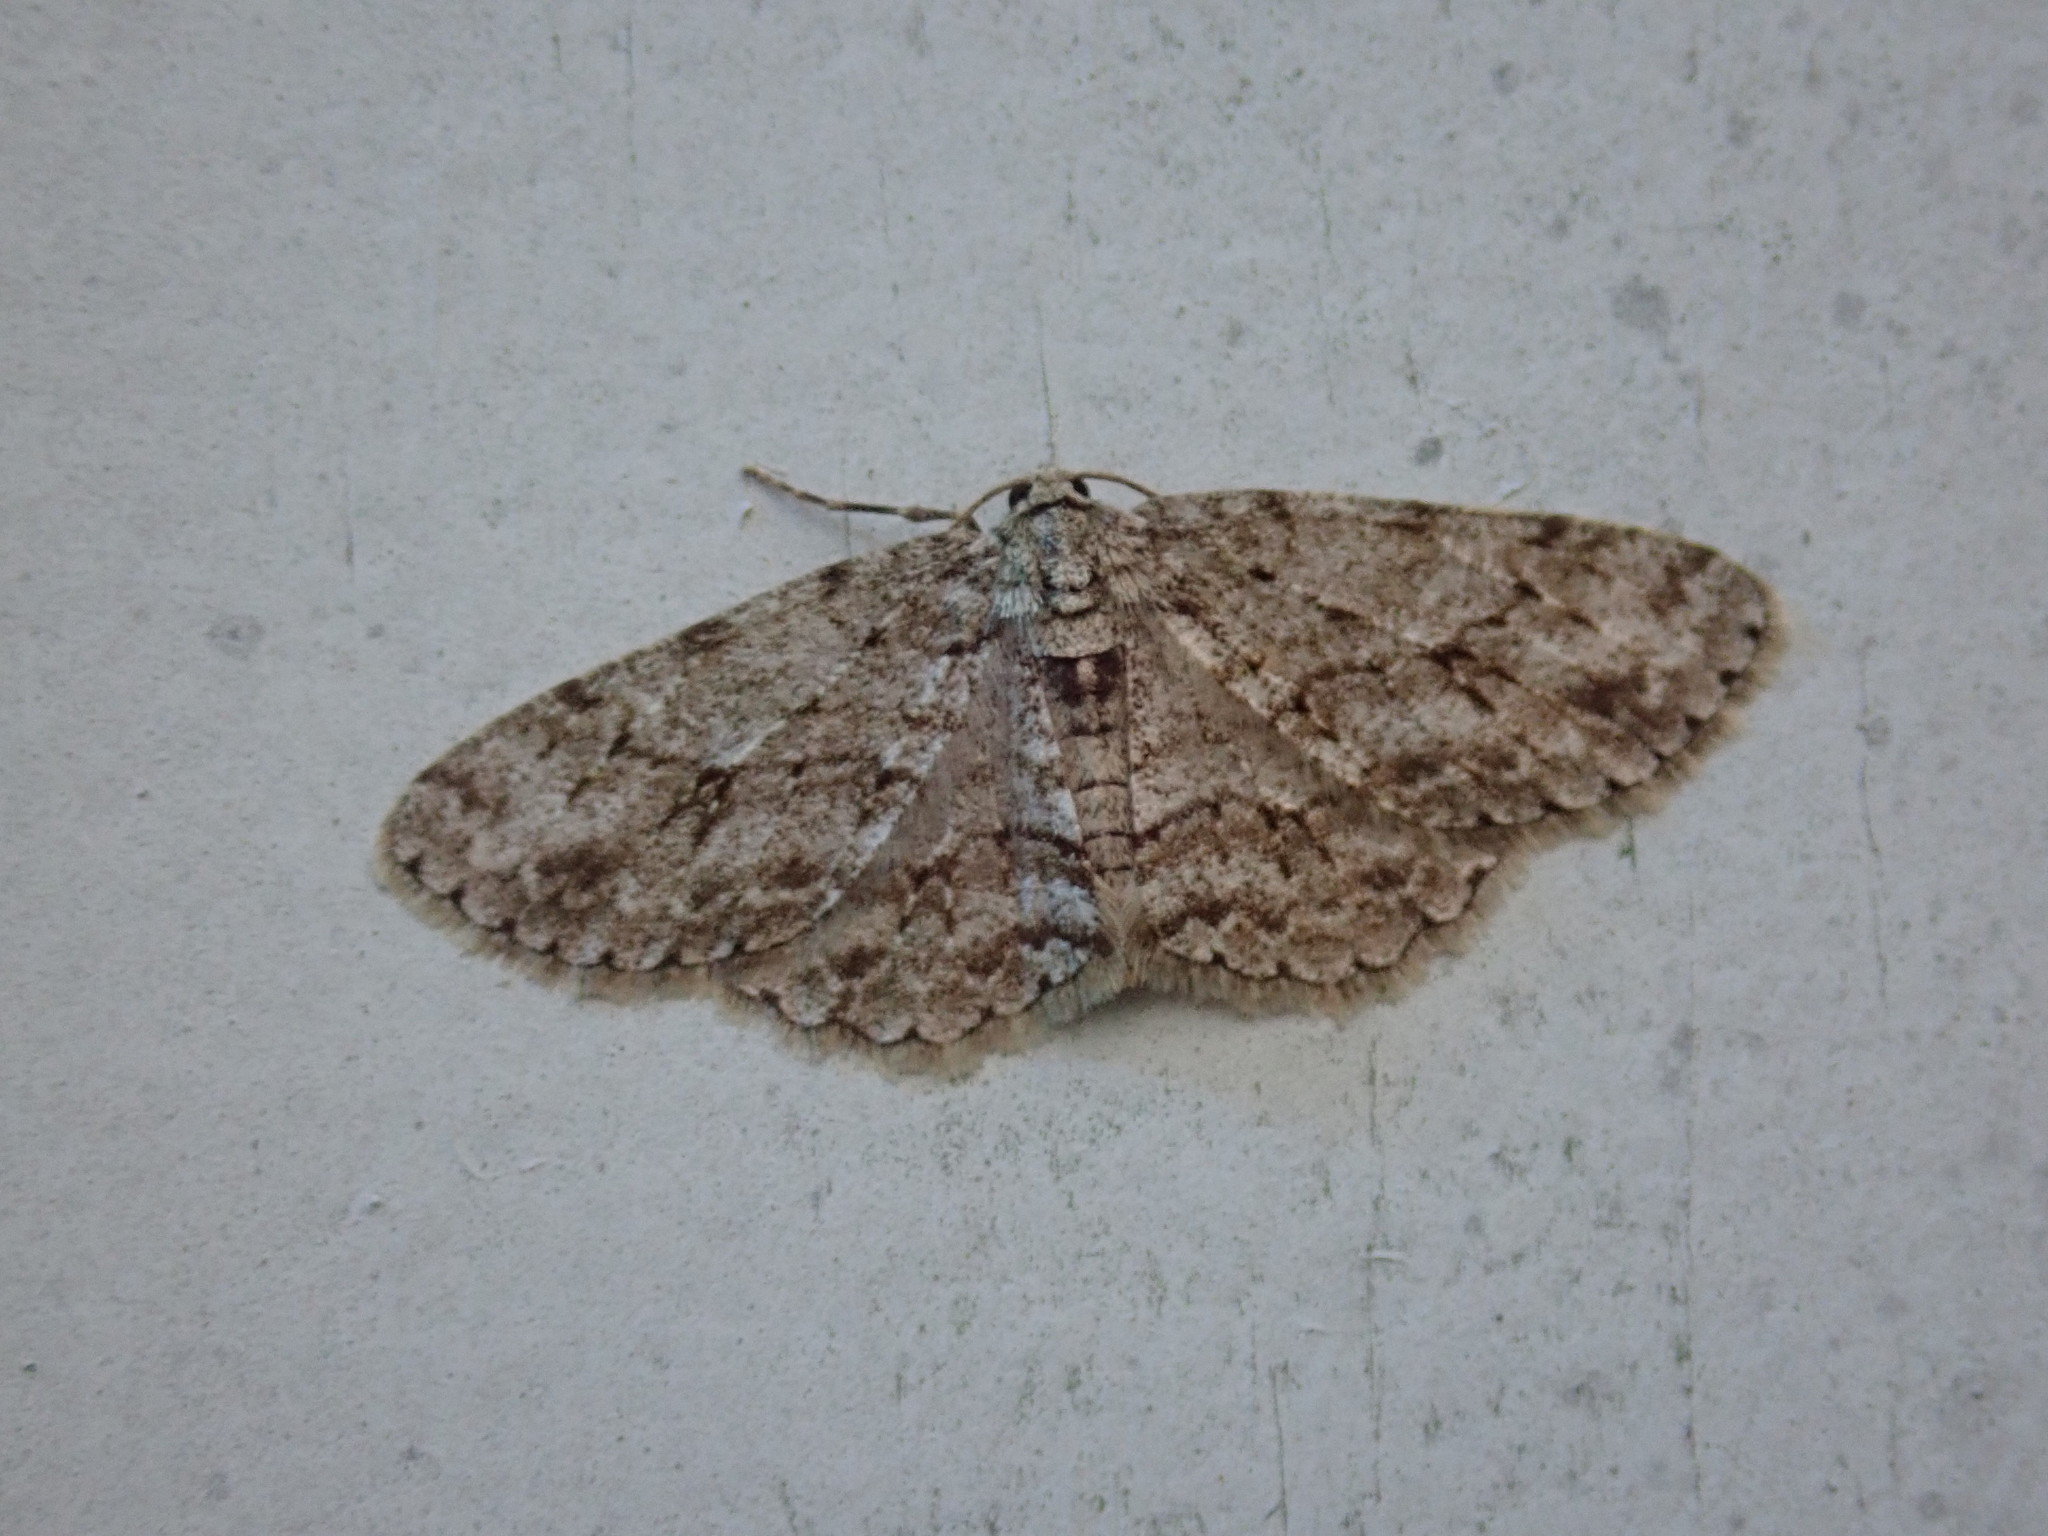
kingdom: Animalia
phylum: Arthropoda
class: Insecta
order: Lepidoptera
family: Geometridae
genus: Ectropis
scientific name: Ectropis crepuscularia
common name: Engrailed
